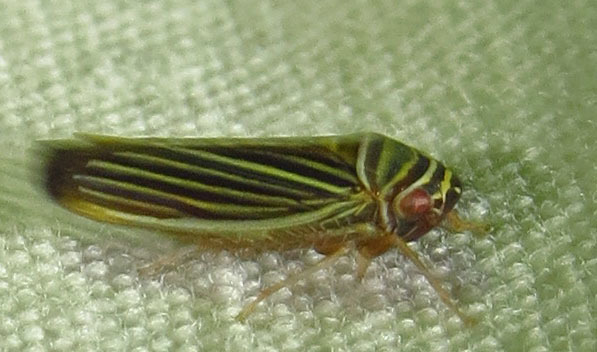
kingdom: Animalia
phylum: Arthropoda
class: Insecta
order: Hemiptera
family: Cicadellidae
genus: Tylozygus
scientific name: Tylozygus bifidus
